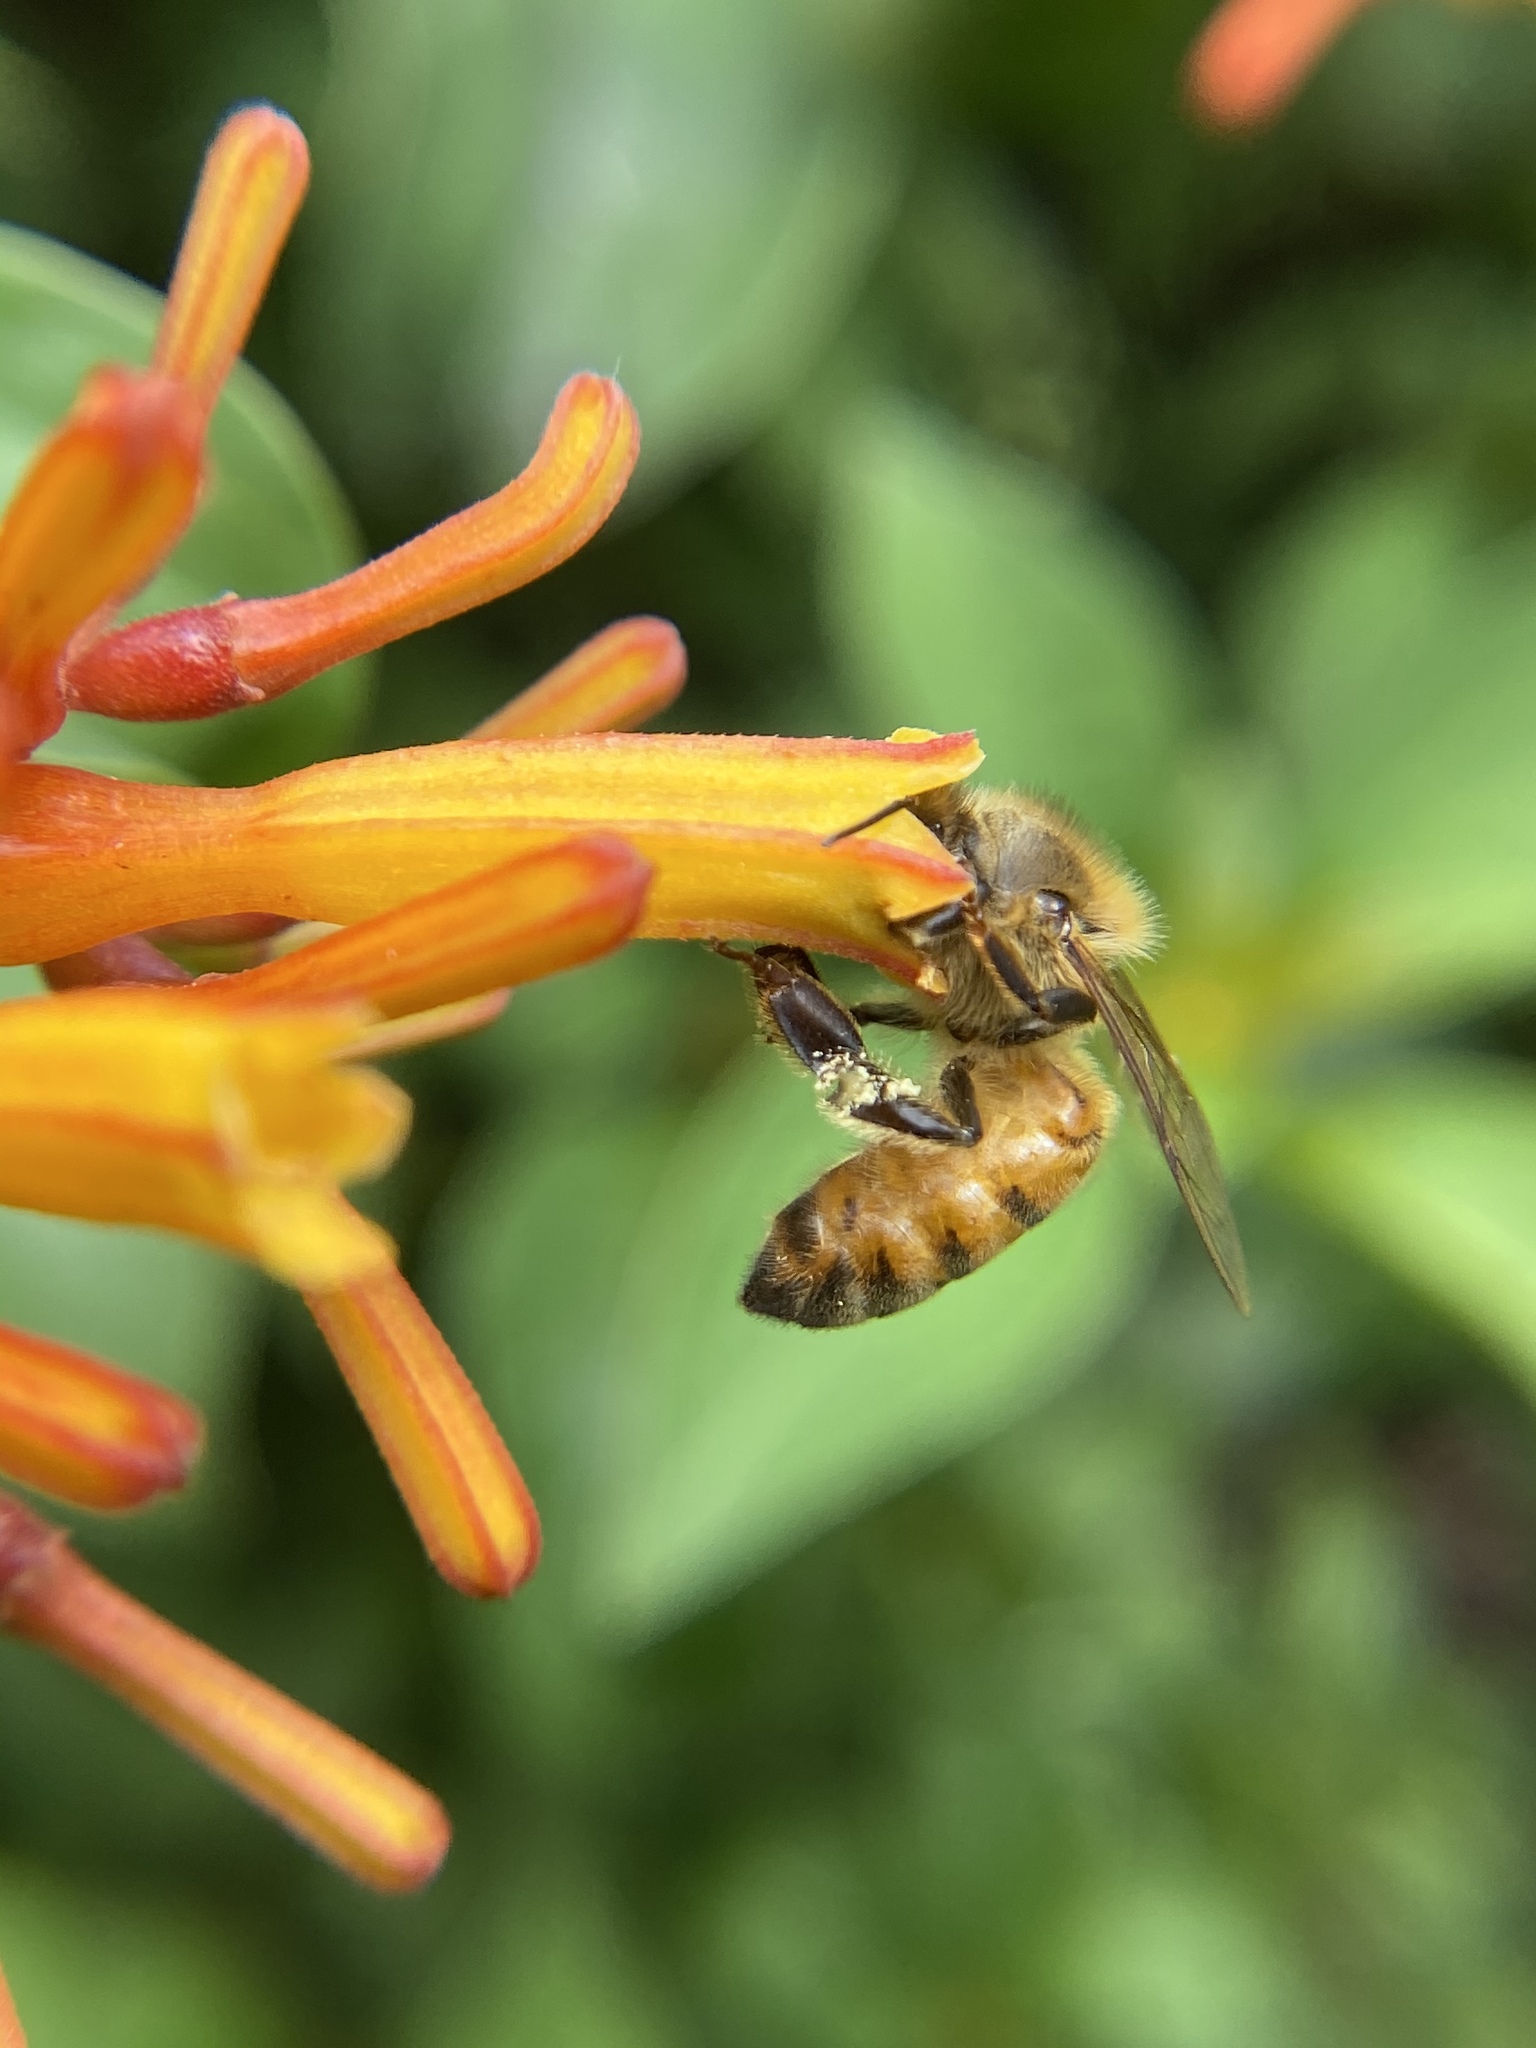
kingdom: Animalia
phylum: Arthropoda
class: Insecta
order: Hymenoptera
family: Apidae
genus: Apis
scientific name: Apis mellifera
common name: Honey bee
